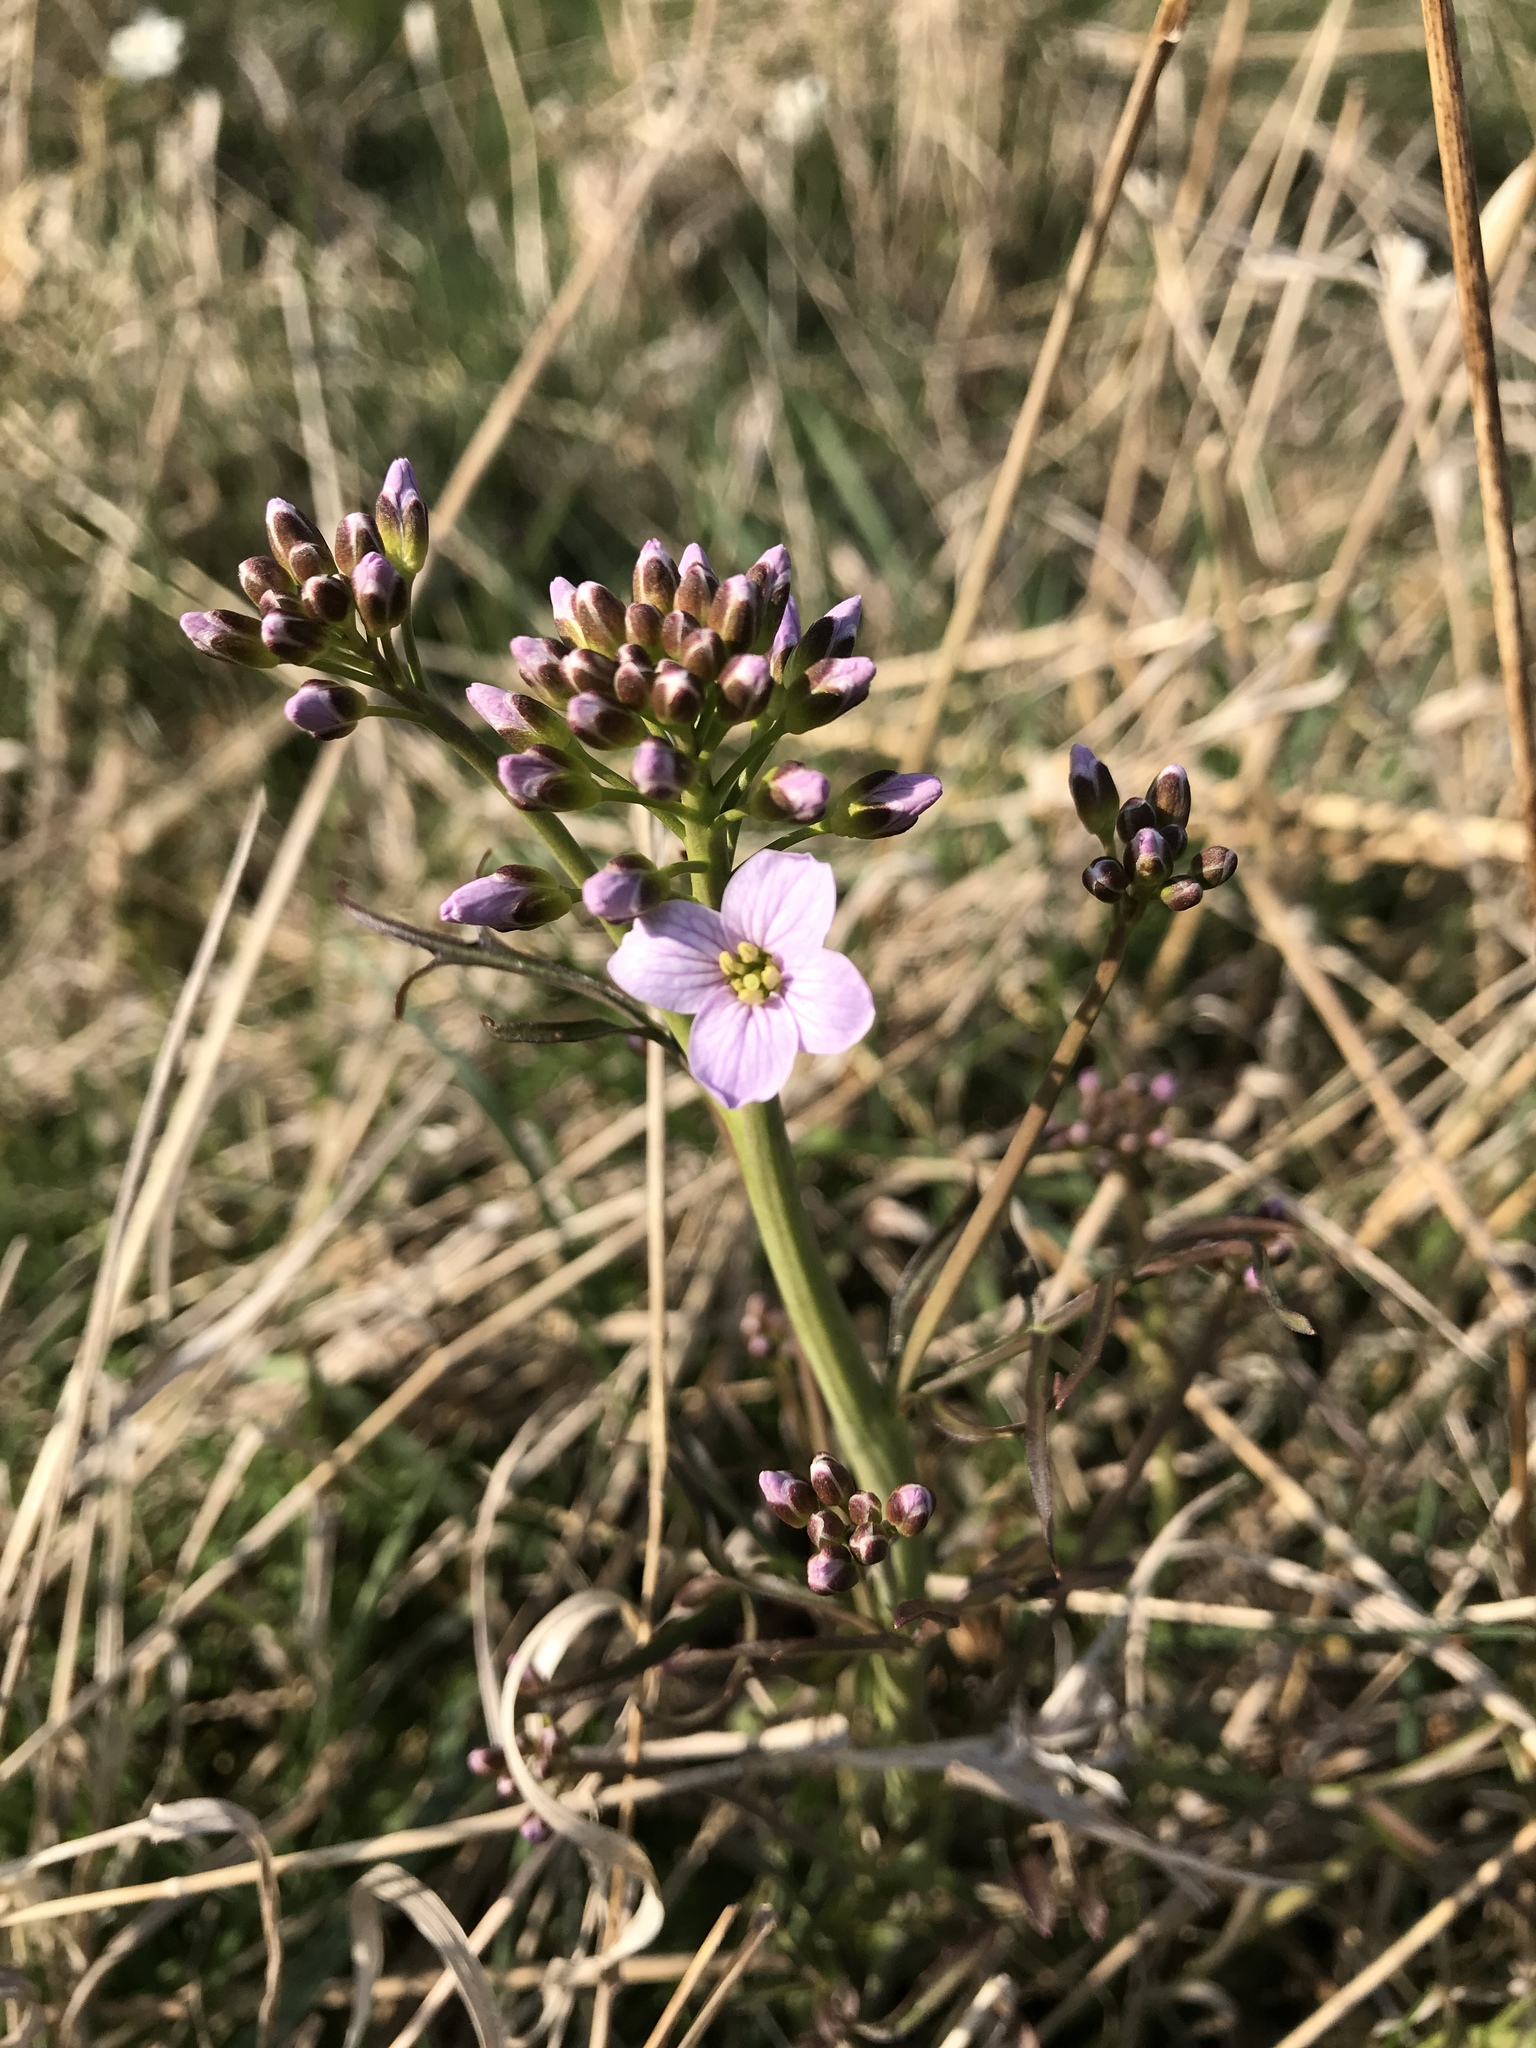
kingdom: Plantae
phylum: Tracheophyta
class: Magnoliopsida
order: Brassicales
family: Brassicaceae
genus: Cardamine
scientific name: Cardamine pratensis
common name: Cuckoo flower
